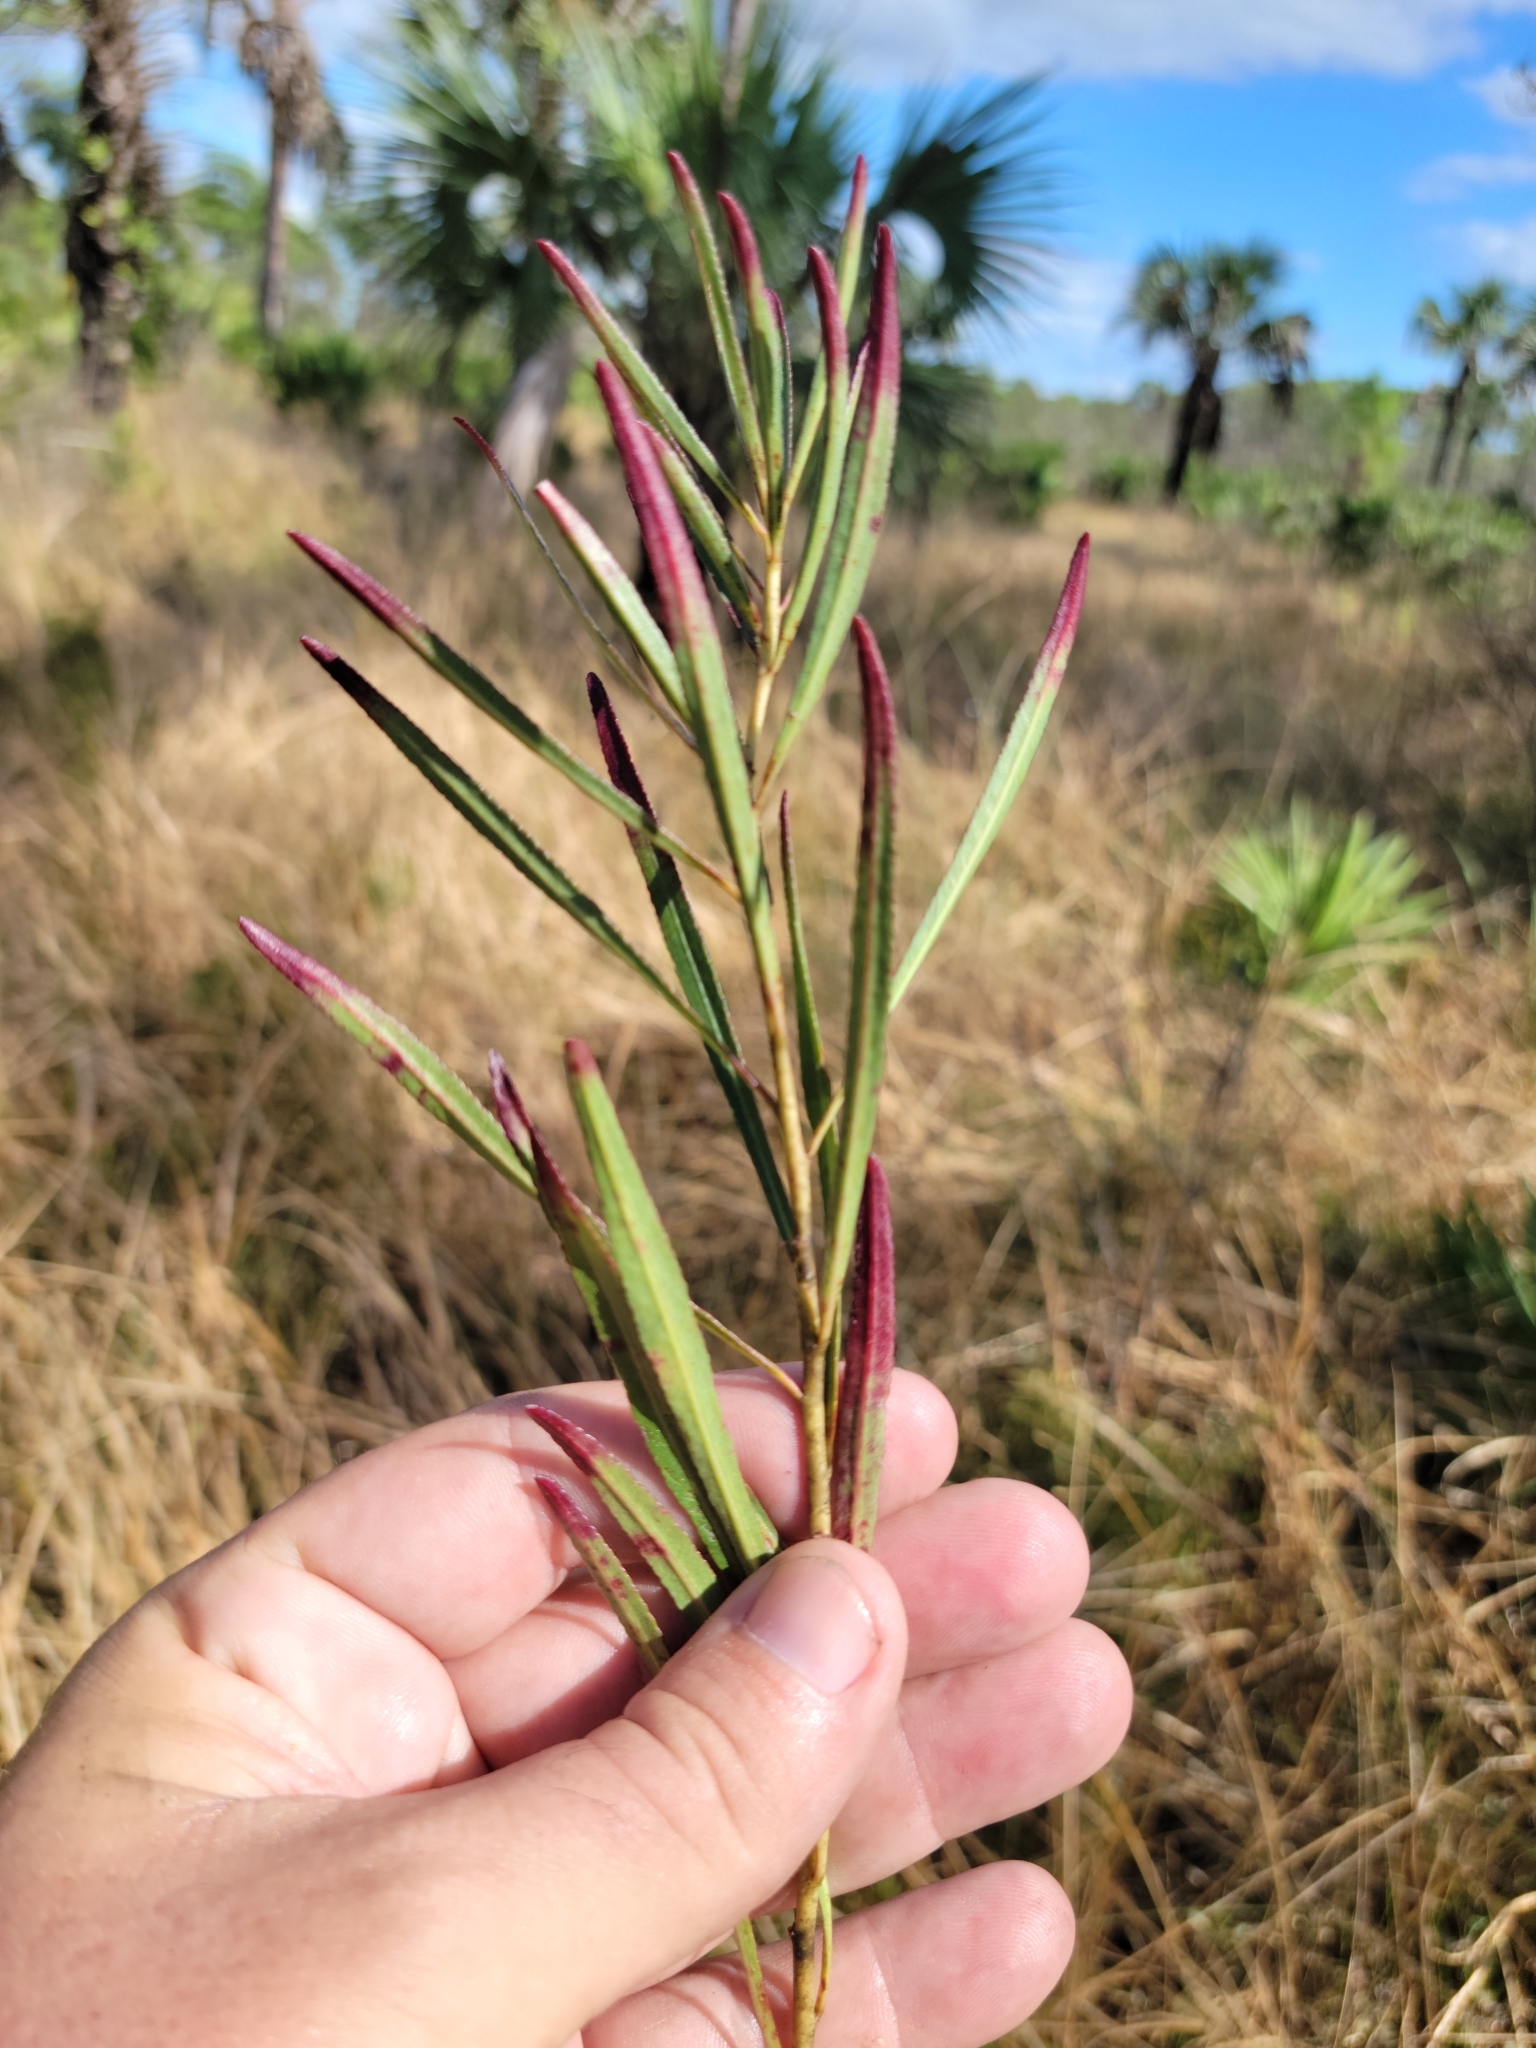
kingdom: Plantae
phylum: Tracheophyta
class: Magnoliopsida
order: Malpighiales
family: Euphorbiaceae
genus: Stillingia
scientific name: Stillingia sylvatica
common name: Queen's-delight
